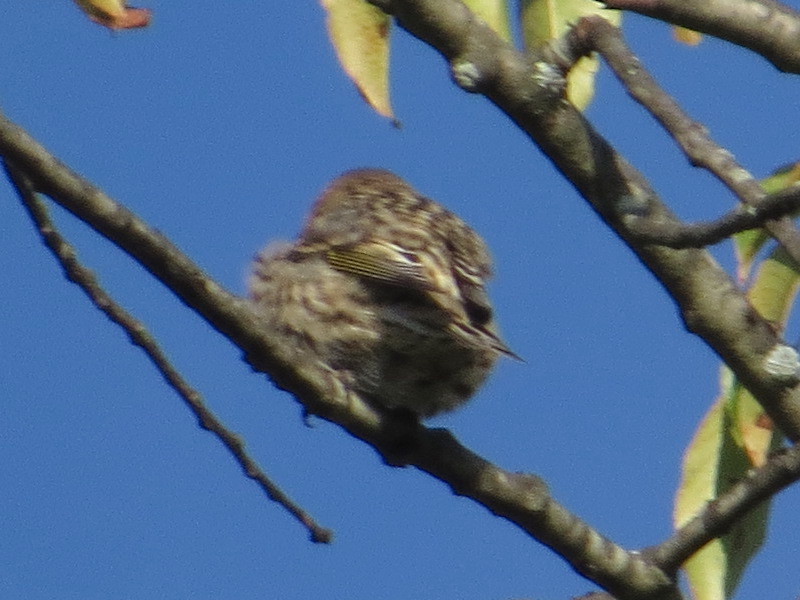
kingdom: Animalia
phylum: Chordata
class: Aves
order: Passeriformes
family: Fringillidae
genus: Spinus
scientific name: Spinus pinus
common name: Pine siskin
